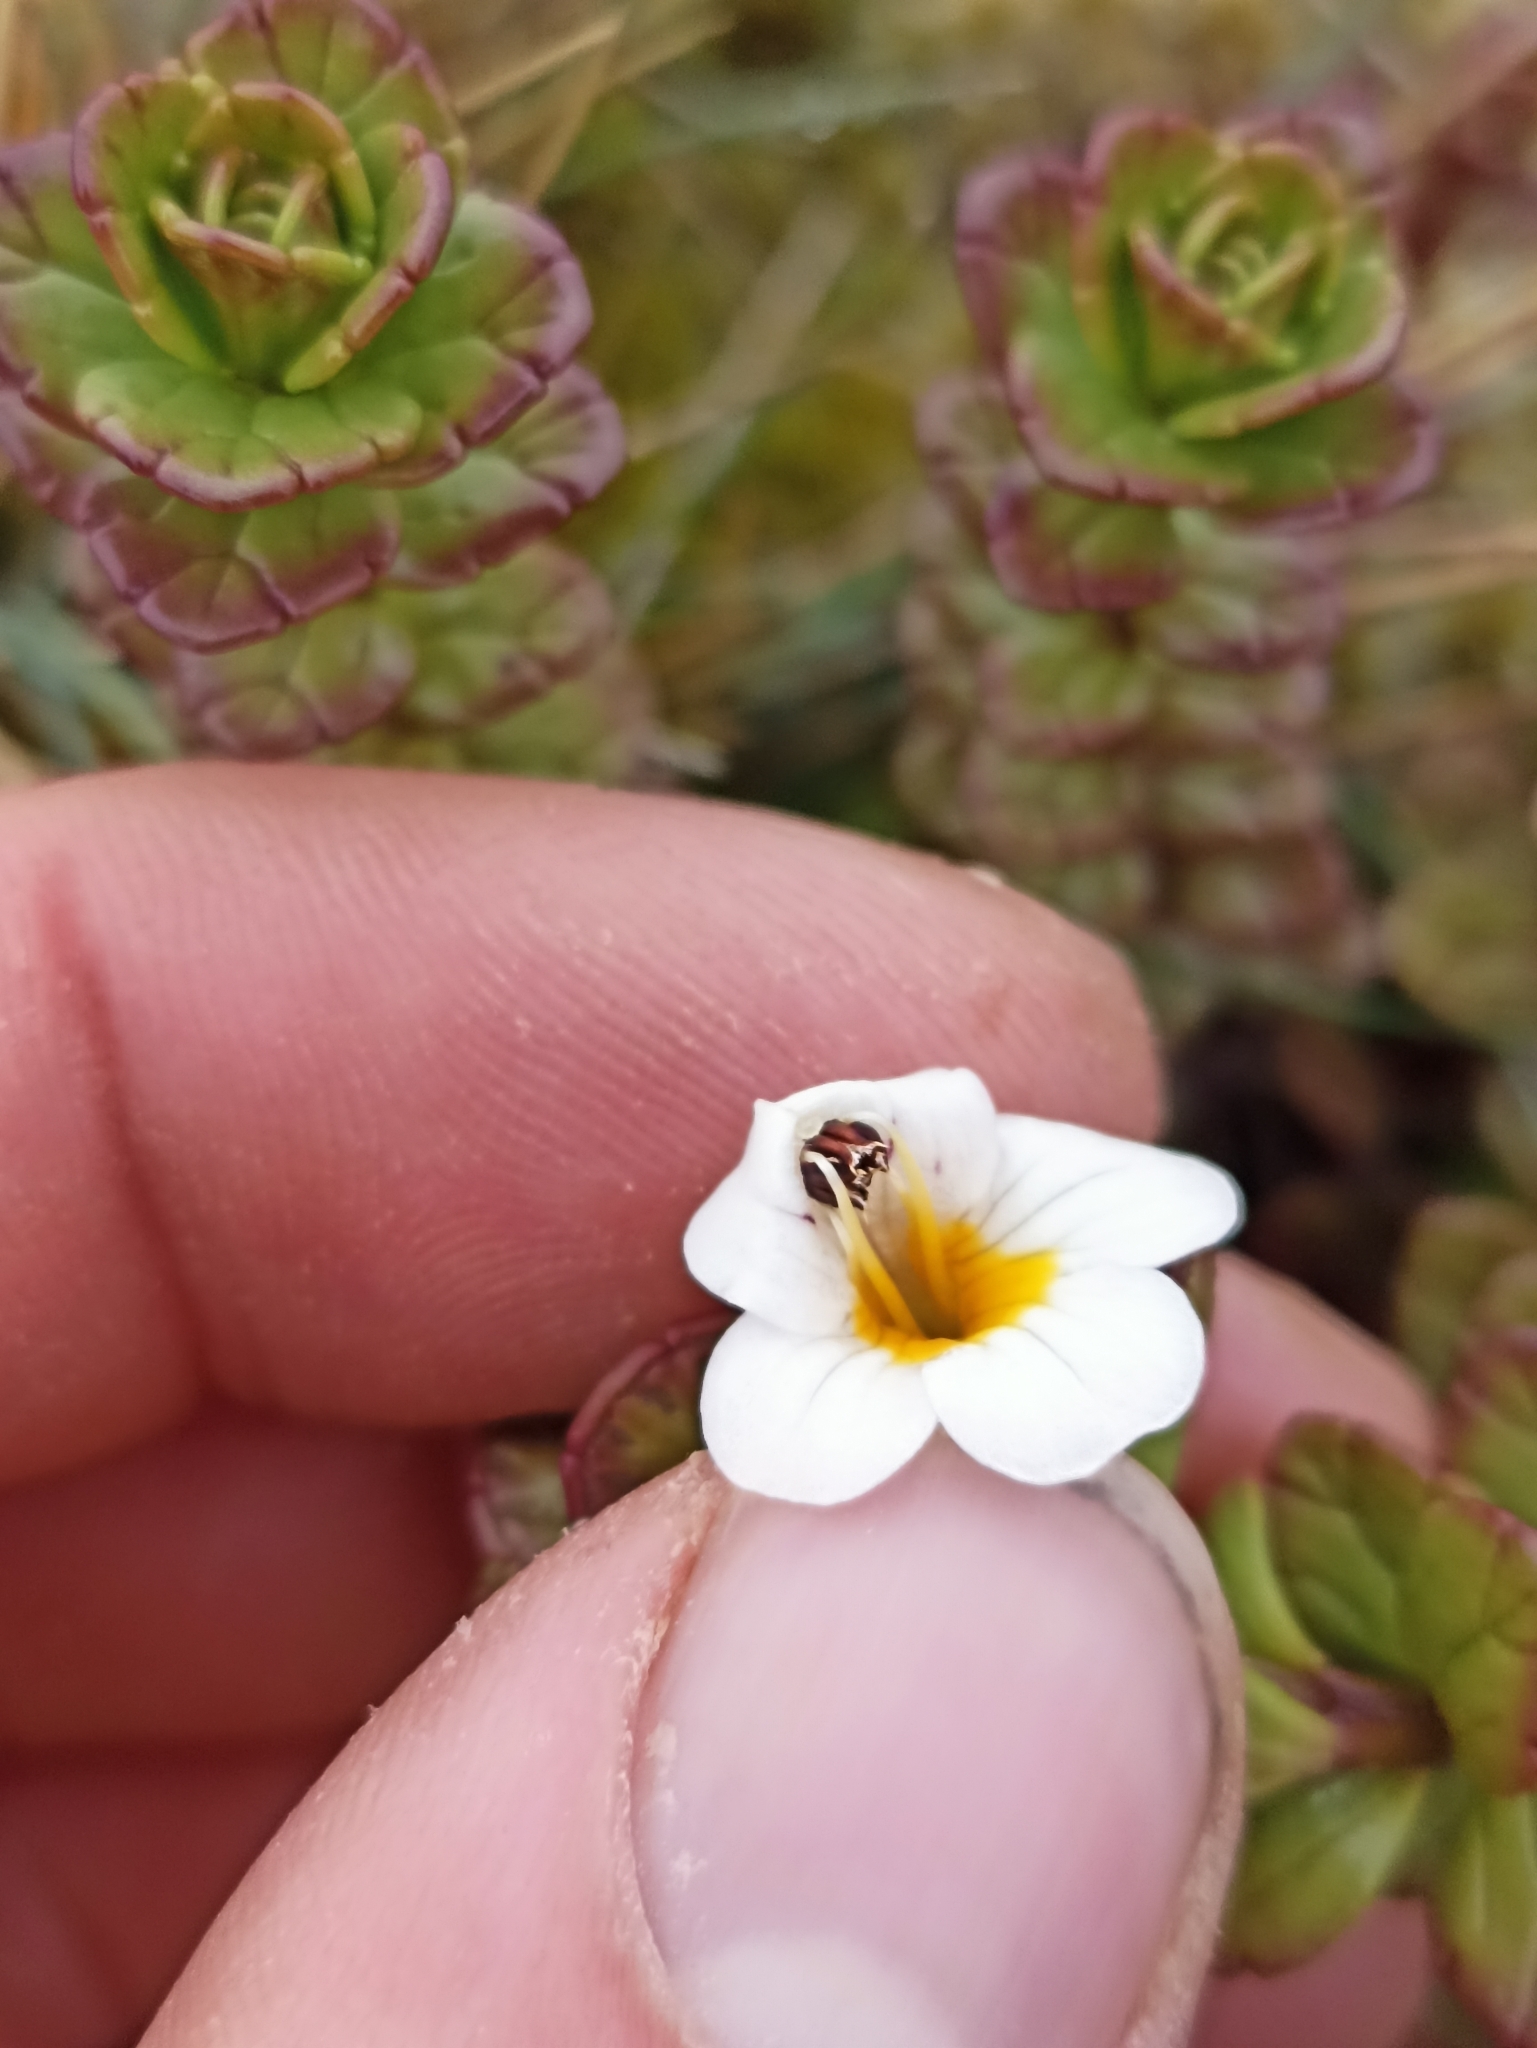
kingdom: Plantae
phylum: Tracheophyta
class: Magnoliopsida
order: Lamiales
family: Orobanchaceae
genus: Euphrasia
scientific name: Euphrasia monroi
